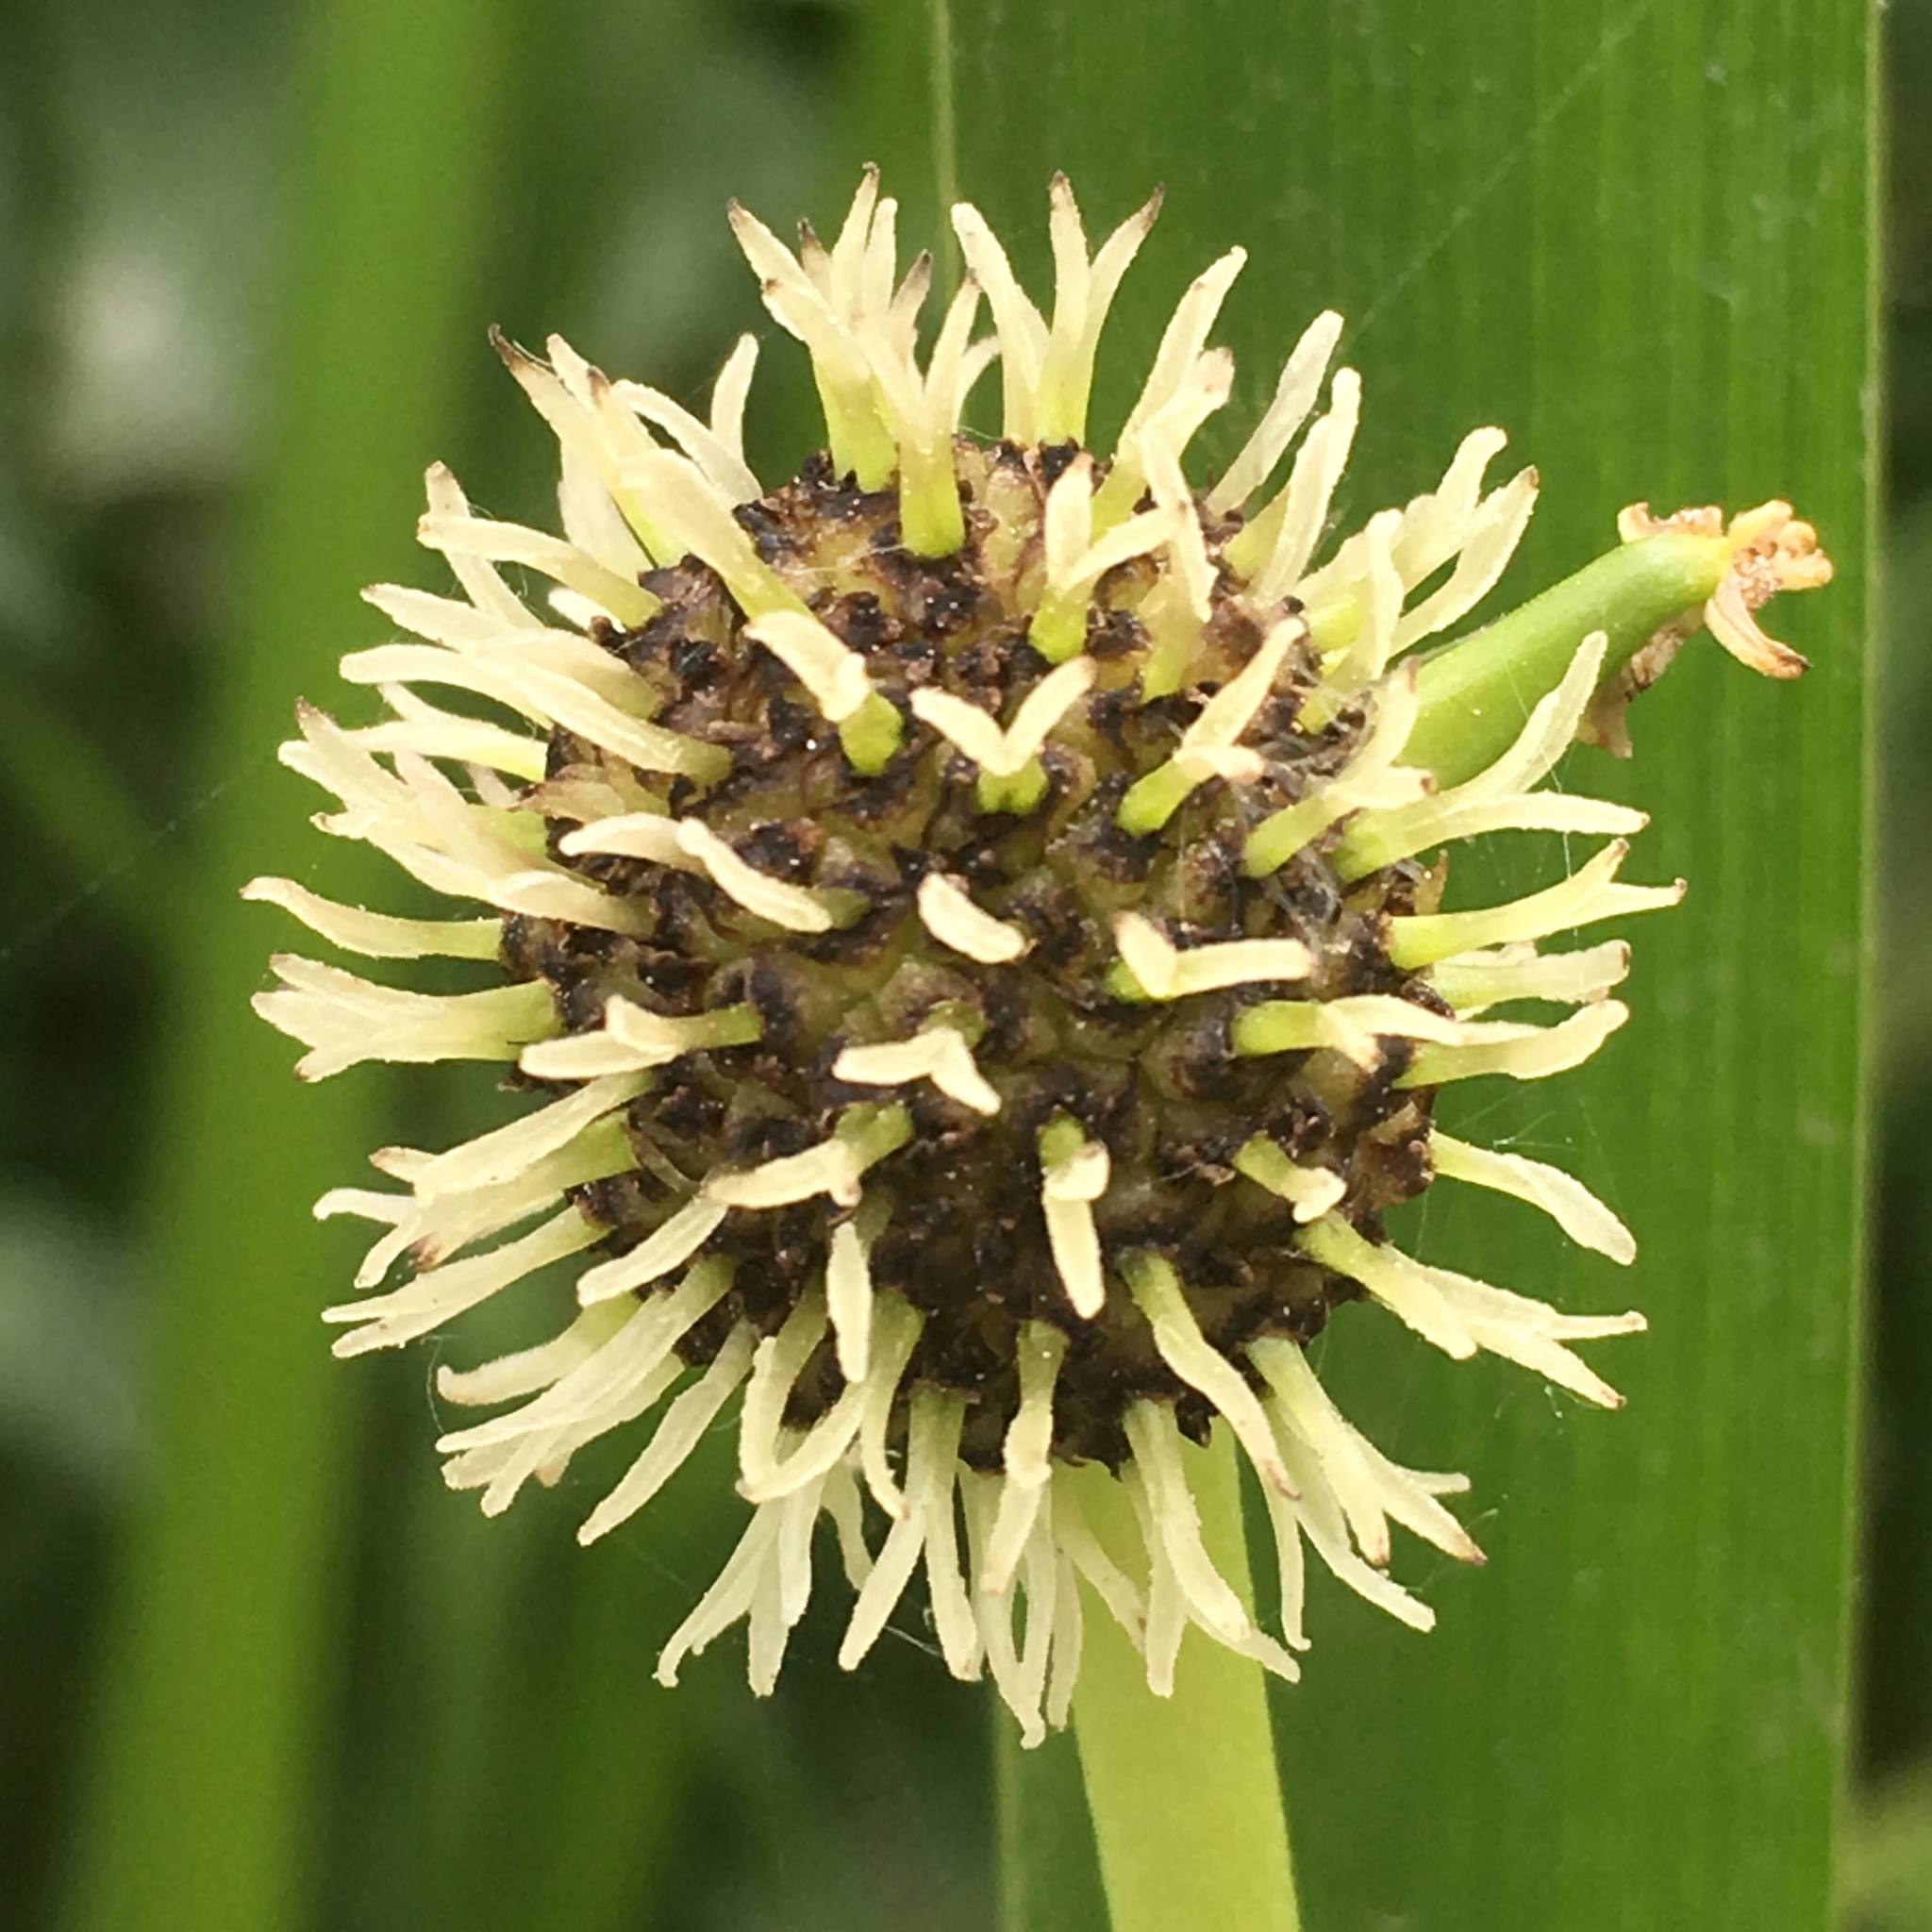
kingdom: Plantae
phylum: Tracheophyta
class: Liliopsida
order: Poales
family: Typhaceae
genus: Sparganium
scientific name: Sparganium eurycarpum
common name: Broad-fruited burreed
